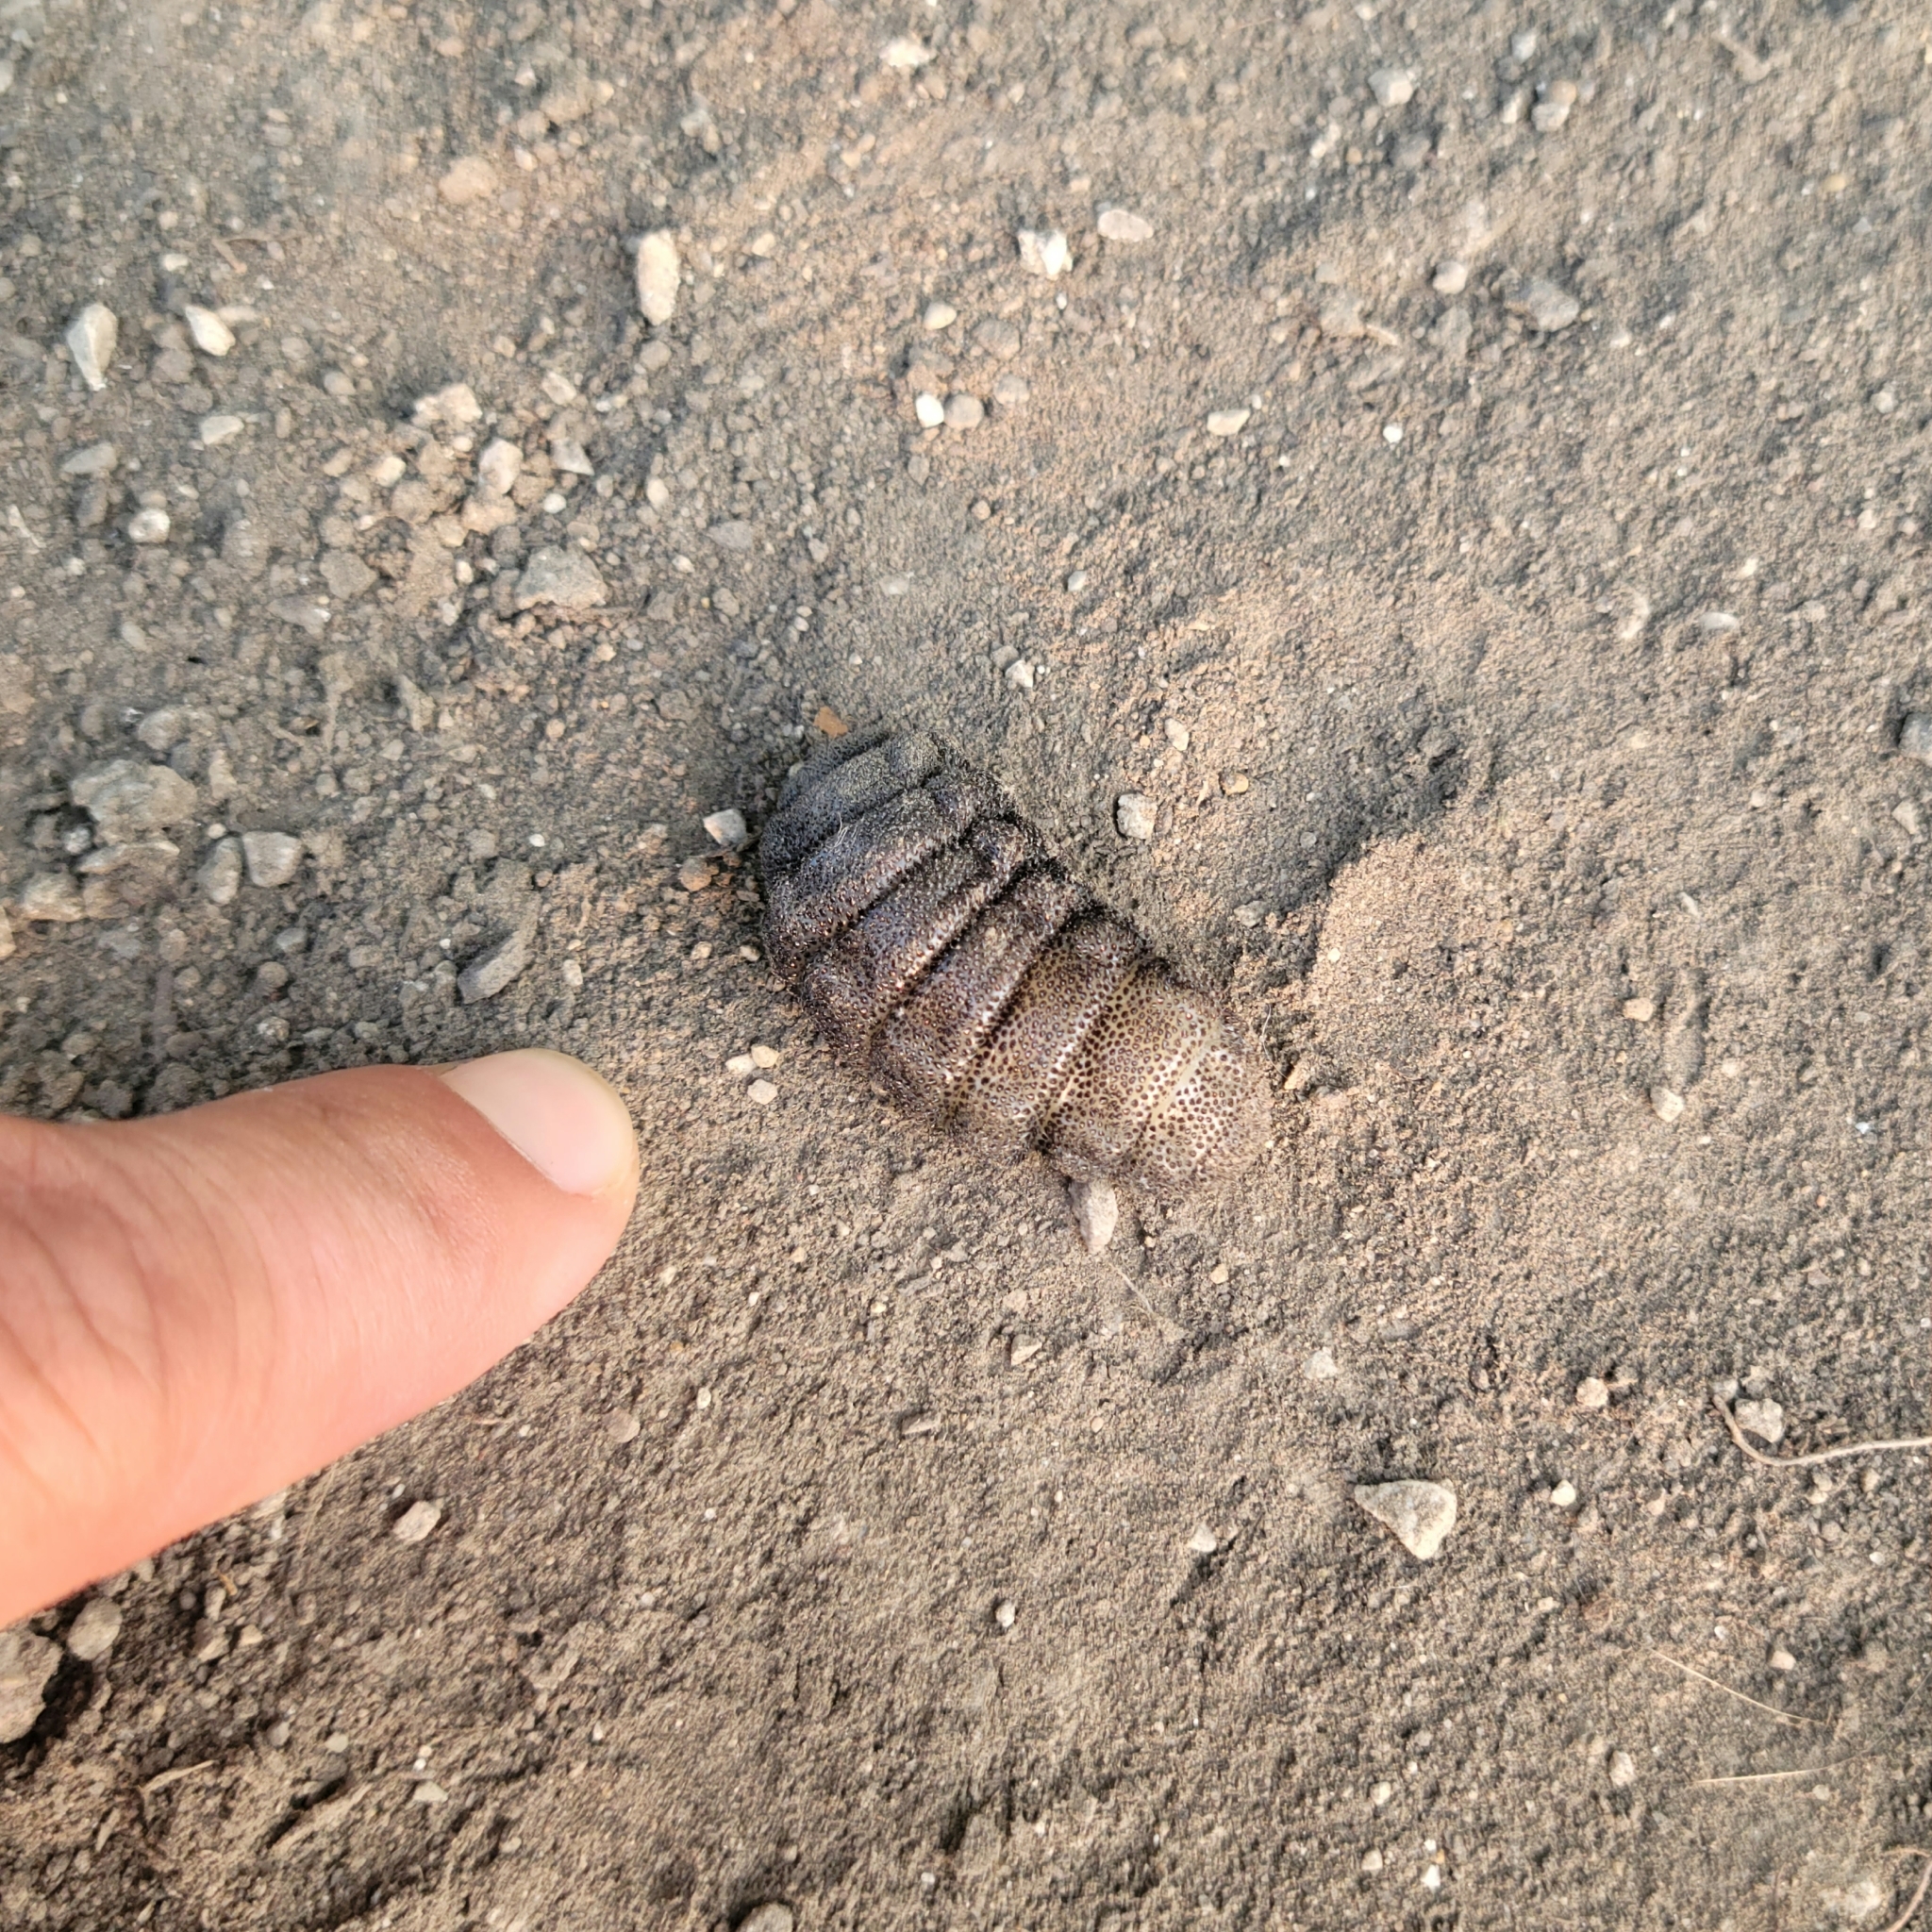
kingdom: Animalia
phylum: Arthropoda
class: Insecta
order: Diptera
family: Oestridae
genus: Cuterebra
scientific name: Cuterebra
